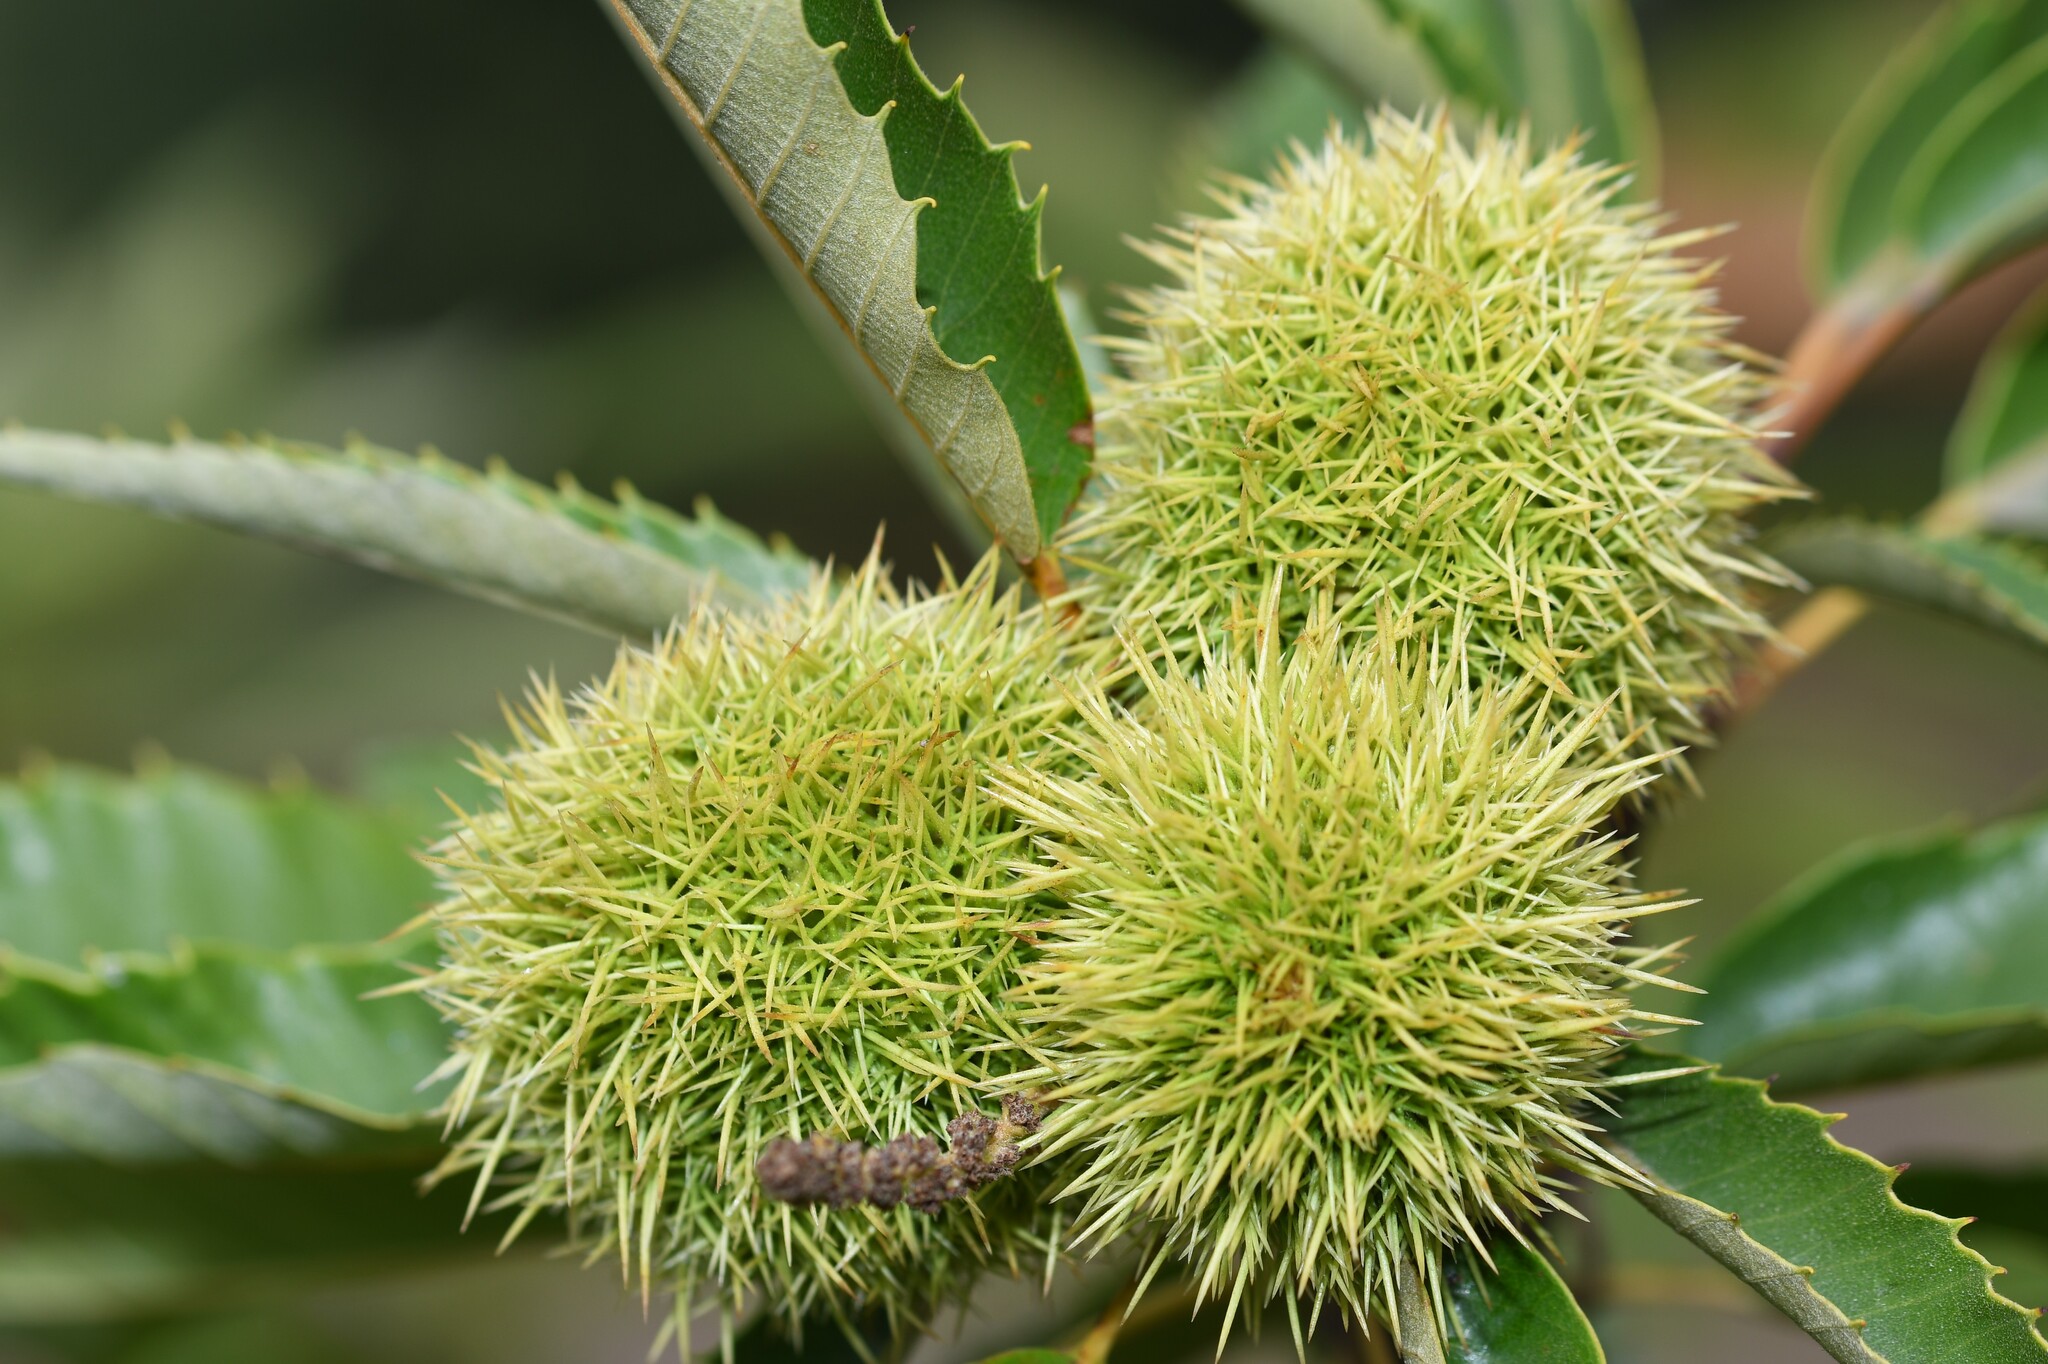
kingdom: Plantae
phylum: Tracheophyta
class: Magnoliopsida
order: Fagales
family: Fagaceae
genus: Castanea
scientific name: Castanea sativa
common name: Sweet chestnut
